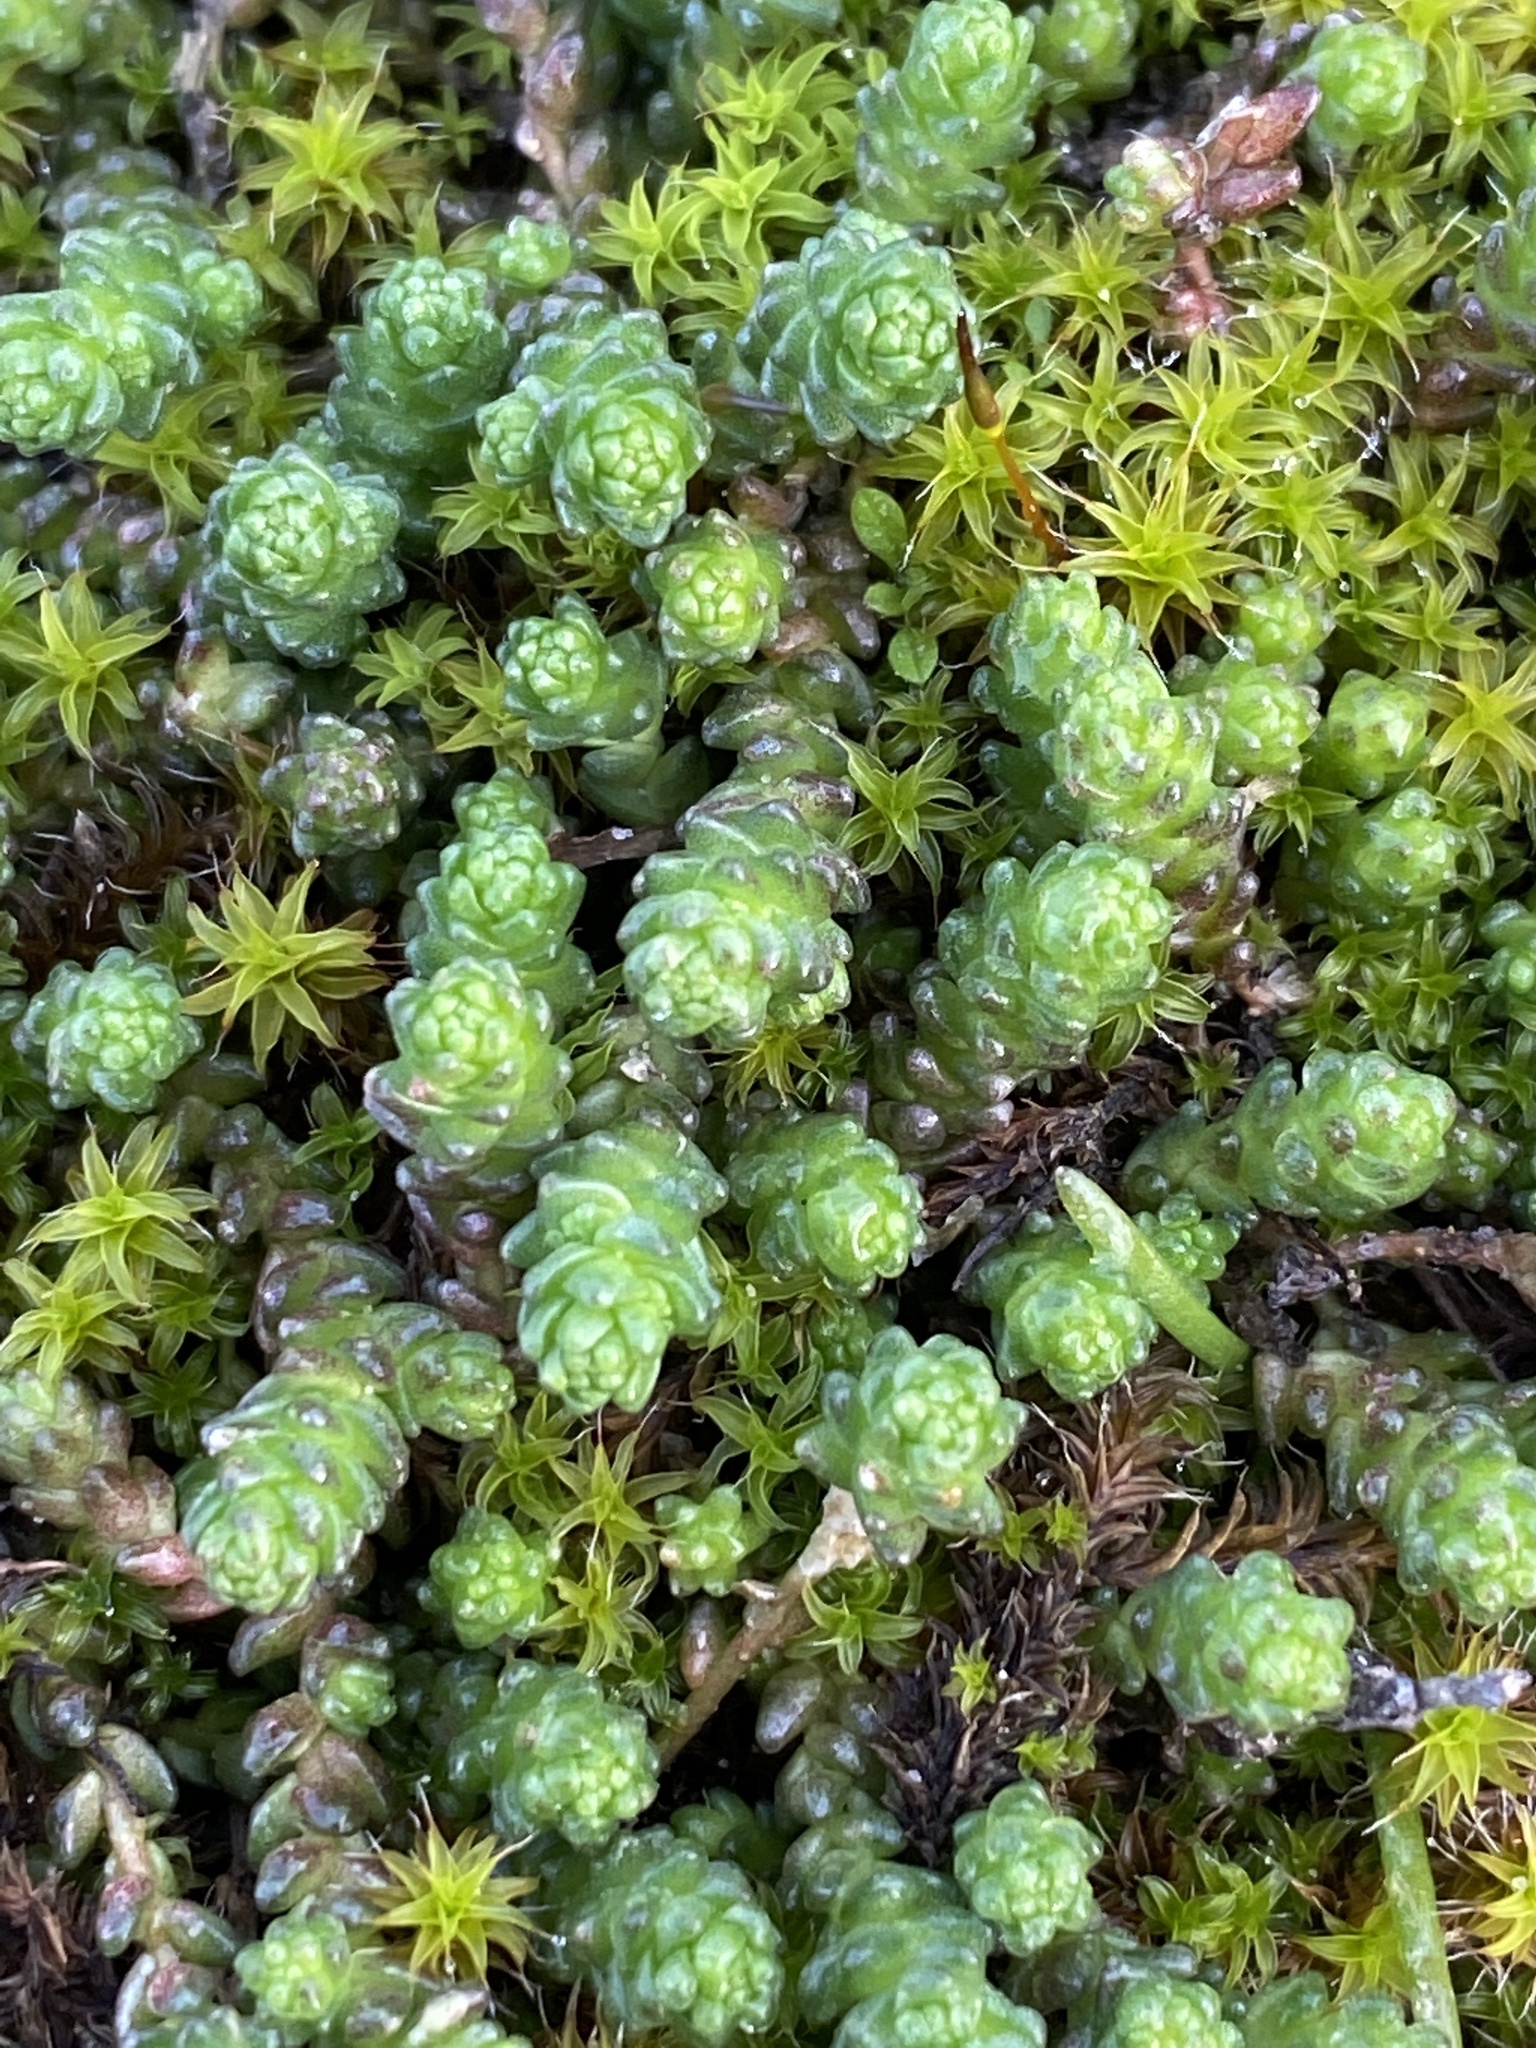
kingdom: Plantae
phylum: Tracheophyta
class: Magnoliopsida
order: Saxifragales
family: Crassulaceae
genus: Sedum
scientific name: Sedum acre
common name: Biting stonecrop
